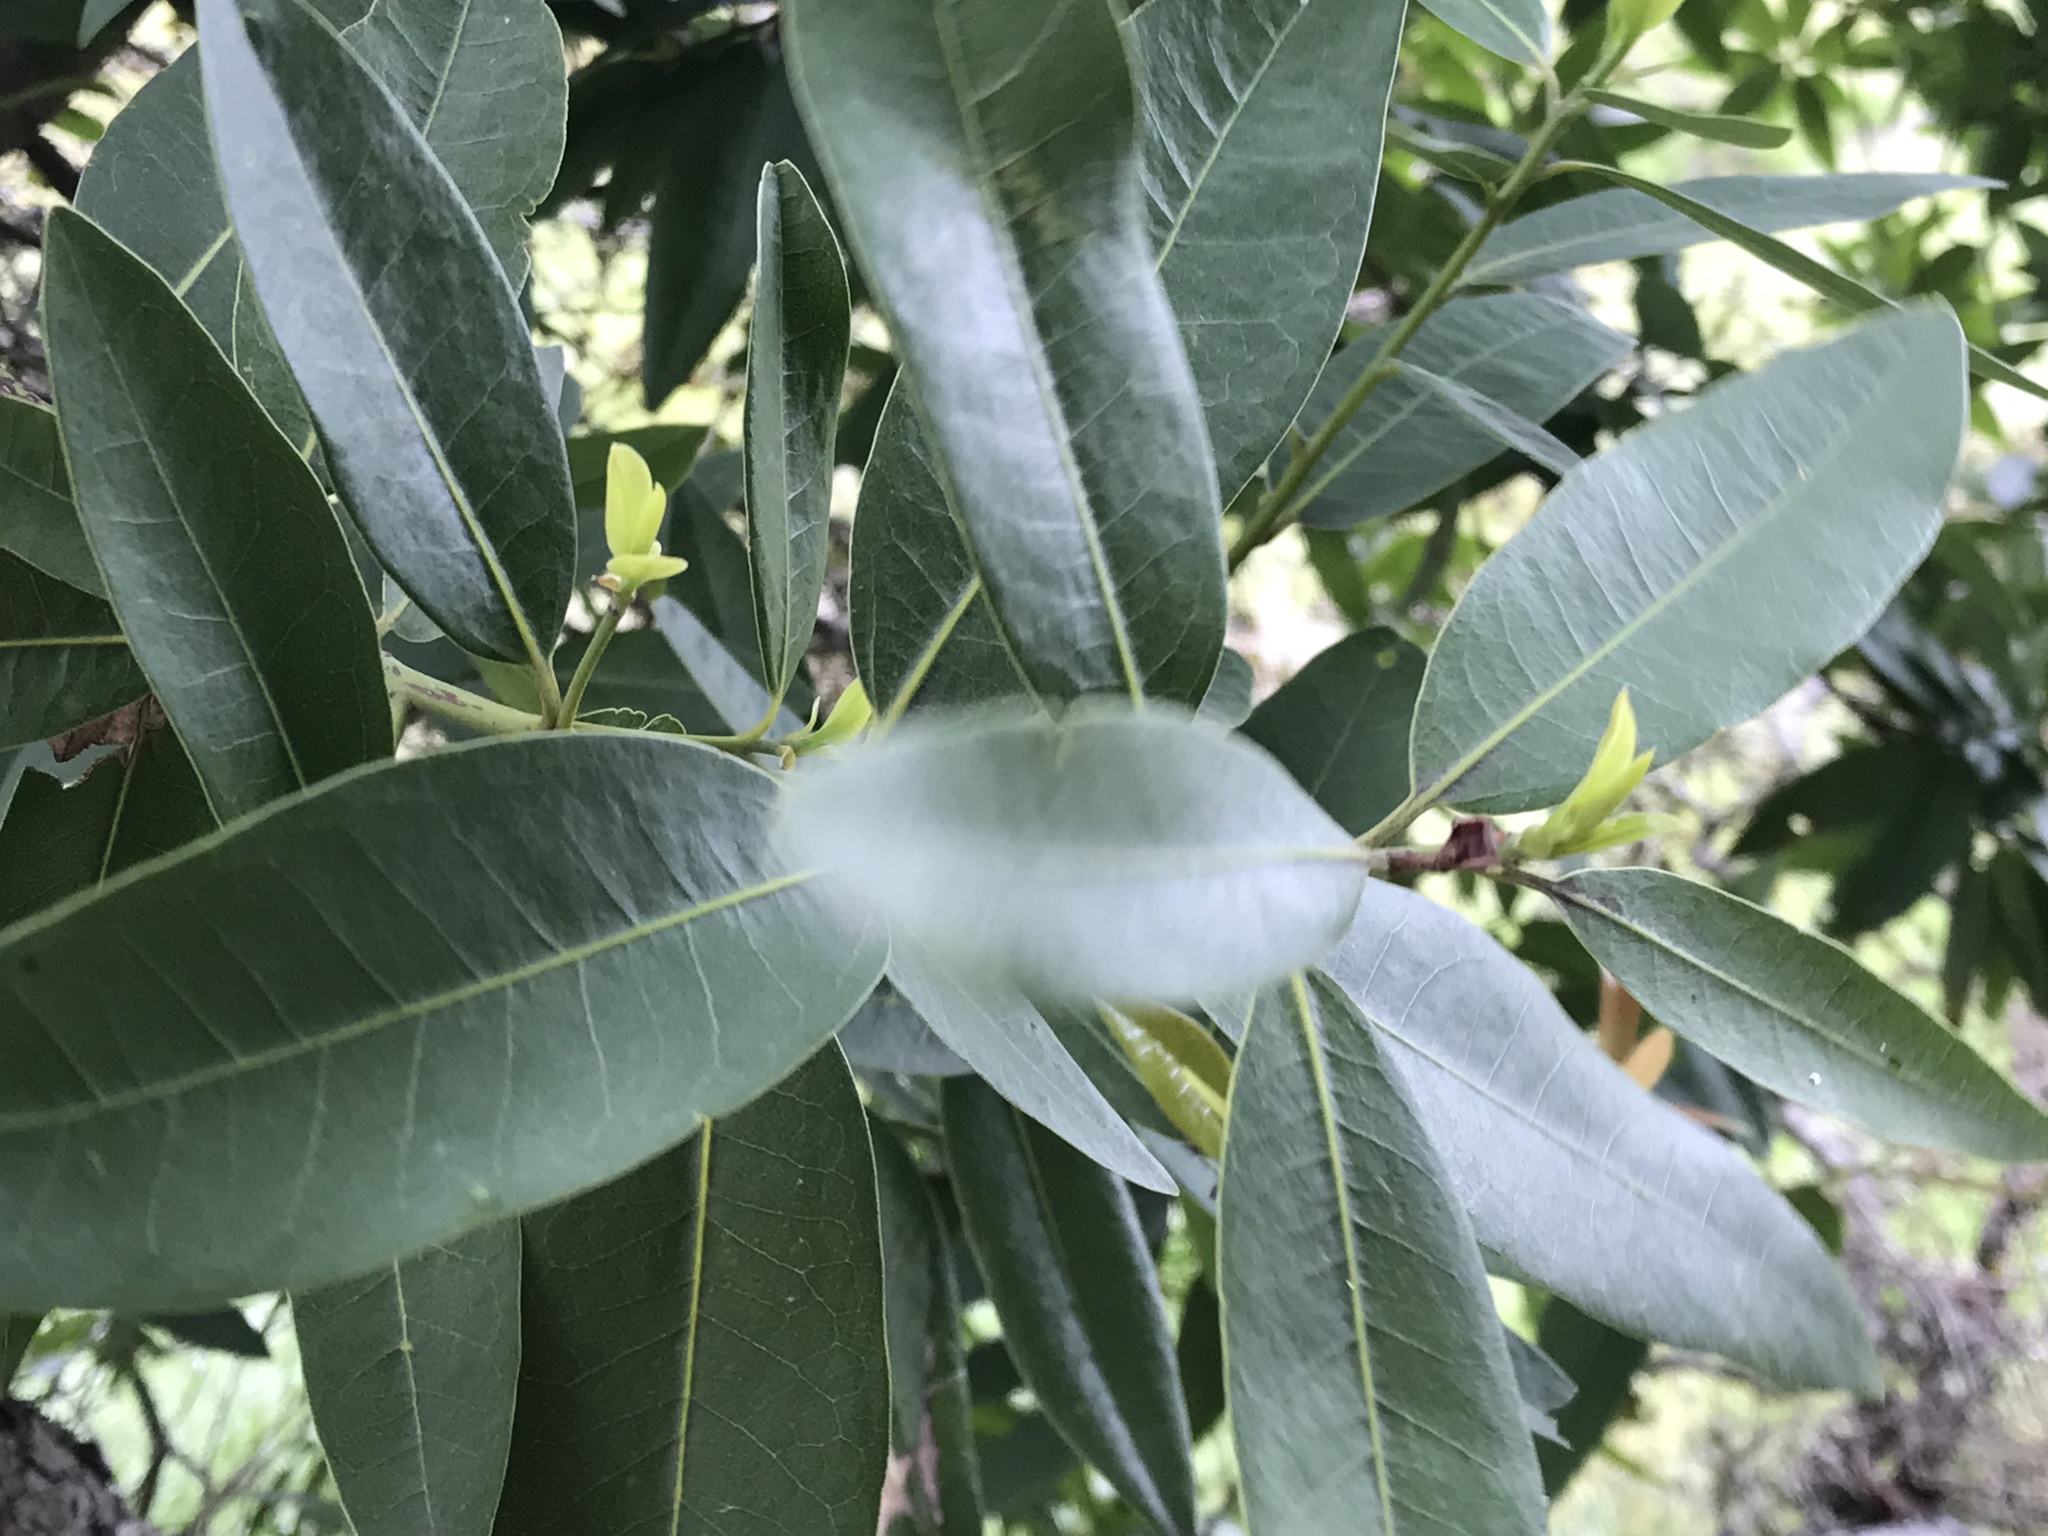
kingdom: Plantae
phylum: Tracheophyta
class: Magnoliopsida
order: Laurales
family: Lauraceae
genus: Umbellularia
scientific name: Umbellularia californica
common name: California bay
